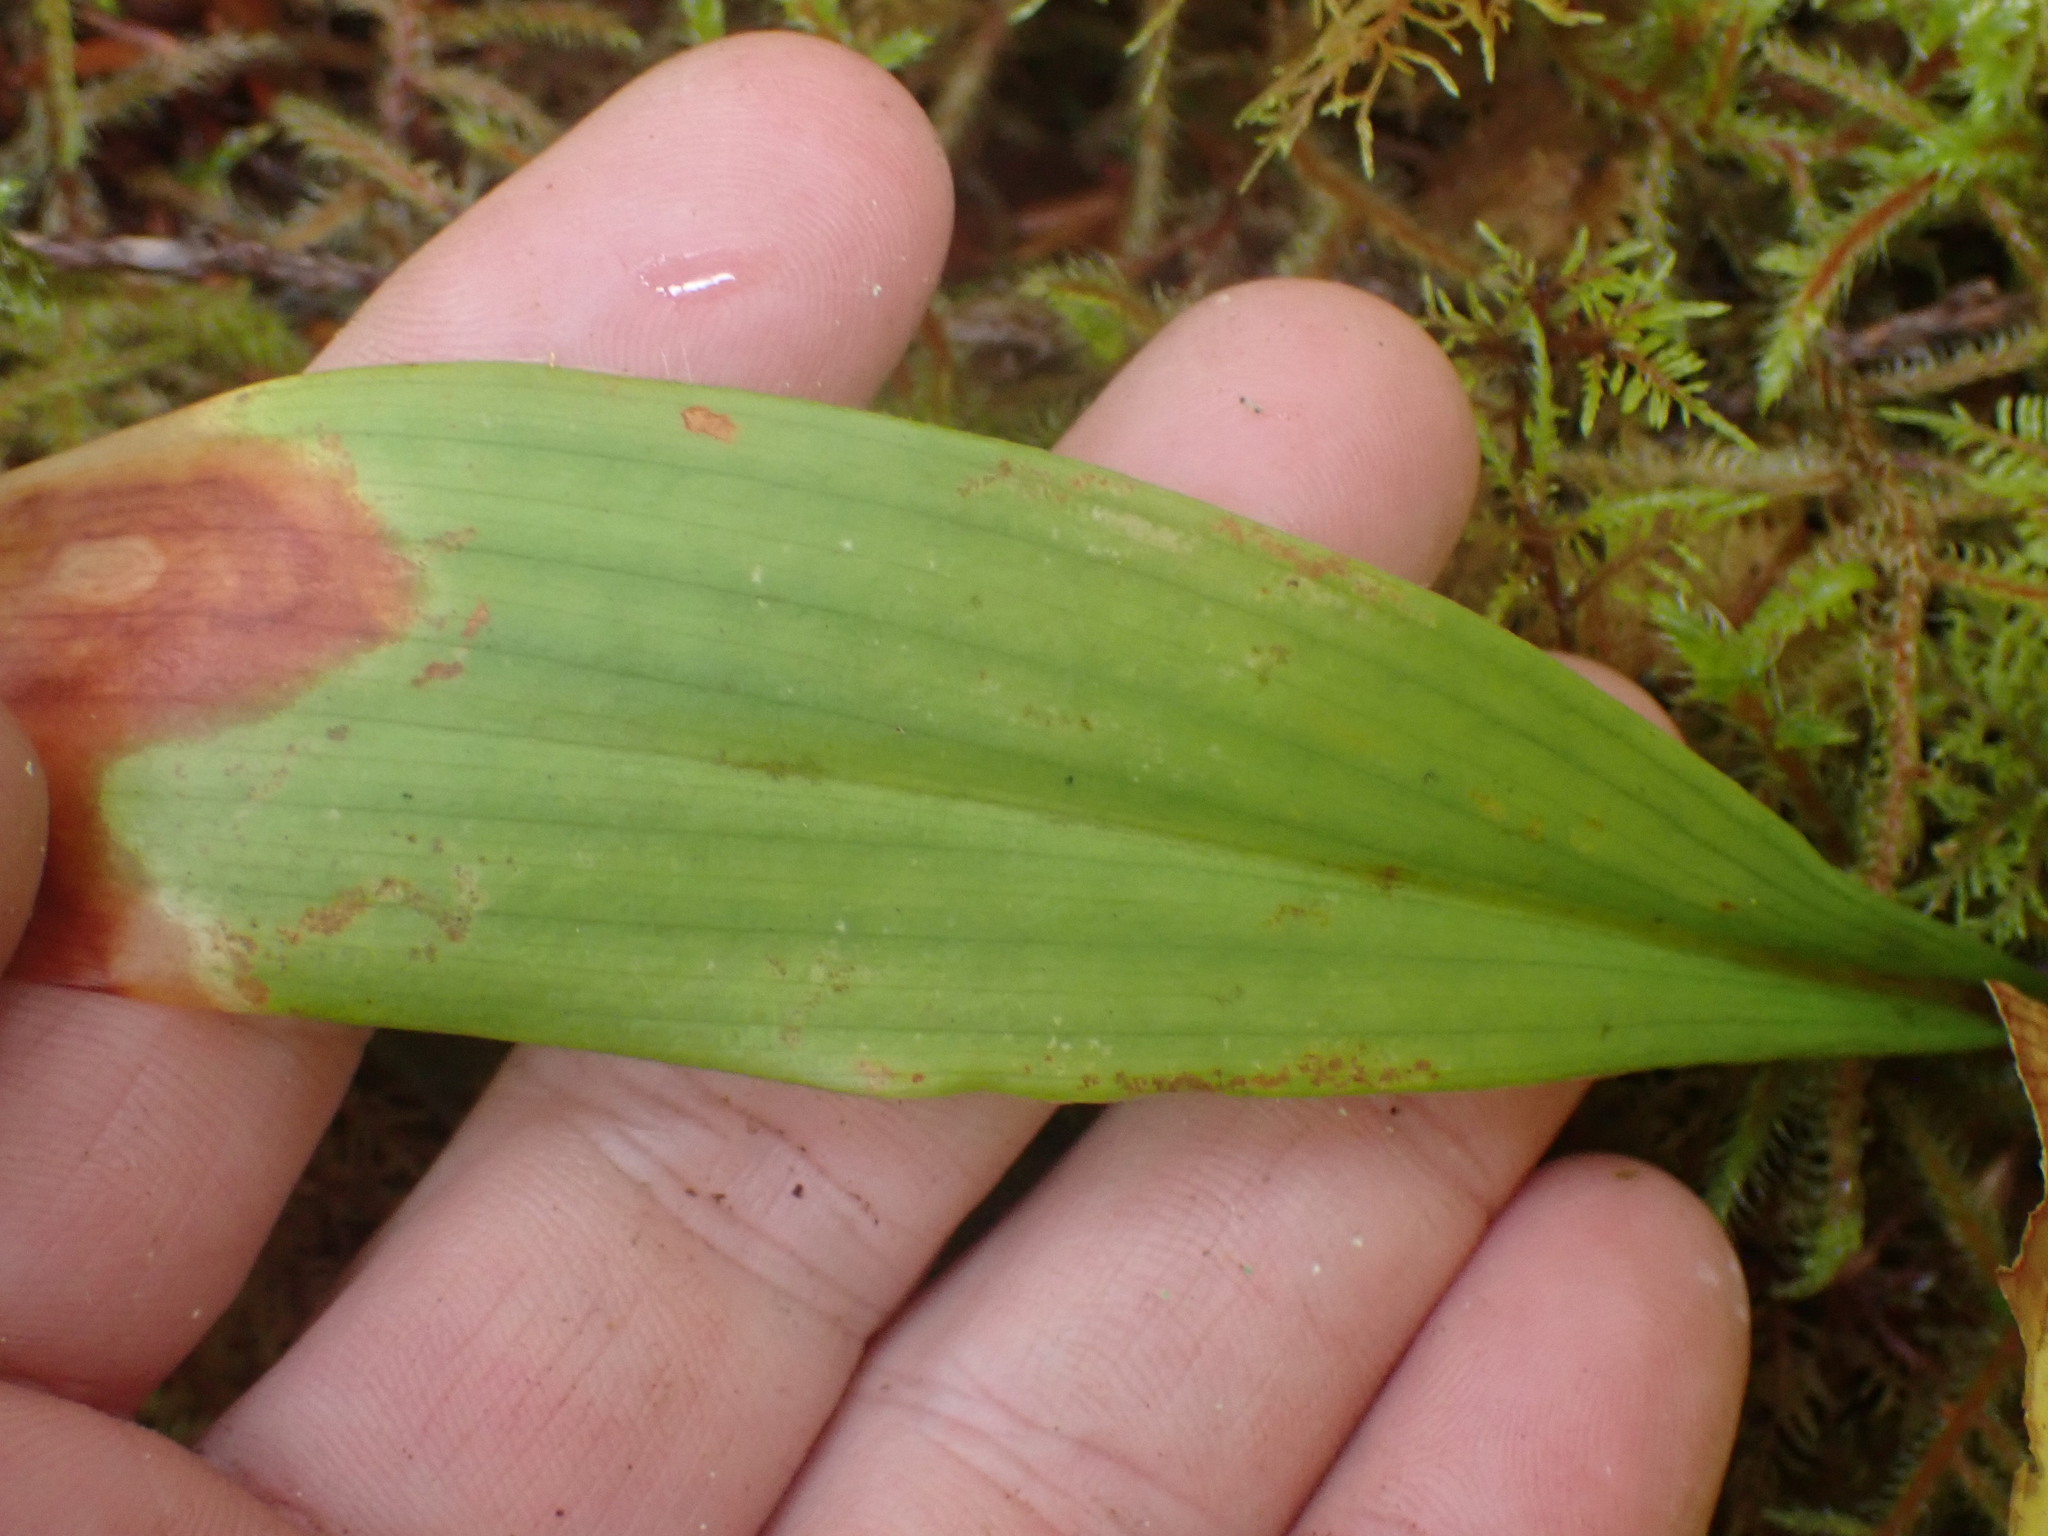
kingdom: Plantae
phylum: Tracheophyta
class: Liliopsida
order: Liliales
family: Liliaceae
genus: Clintonia
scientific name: Clintonia uniflora
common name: Queen's cup
